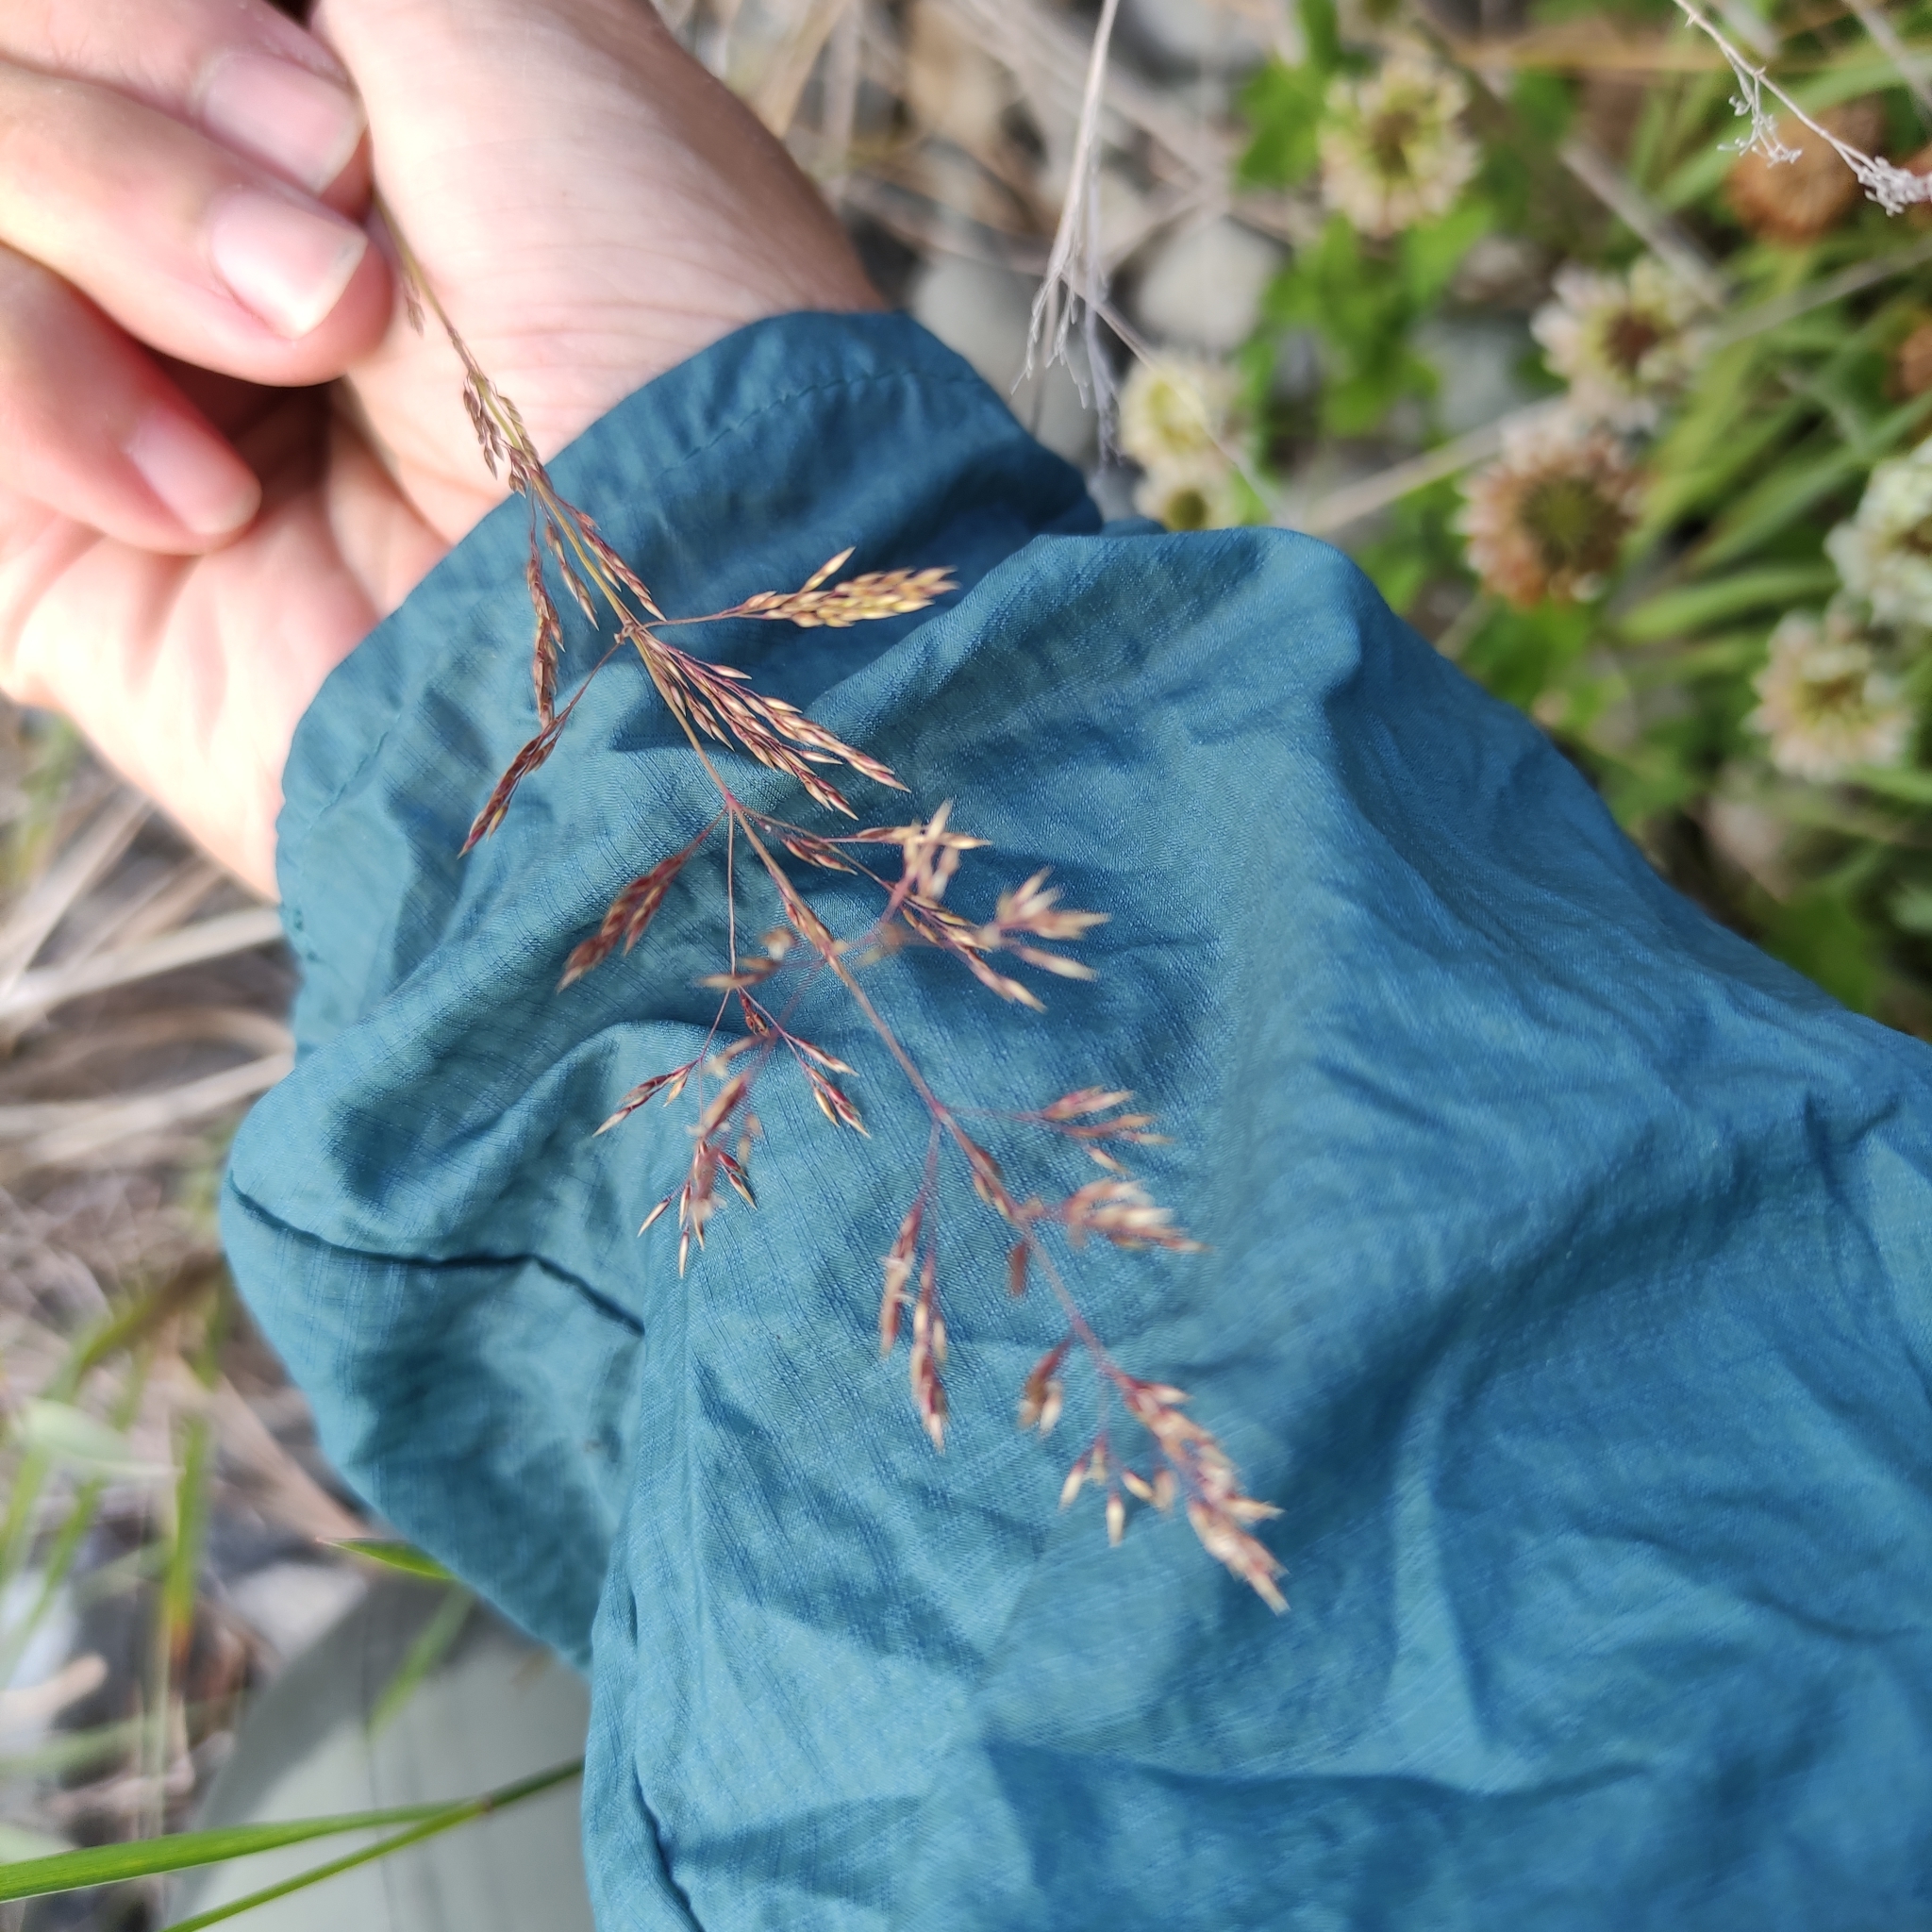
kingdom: Plantae
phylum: Tracheophyta
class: Liliopsida
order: Poales
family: Poaceae
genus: Agrostis
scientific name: Agrostis capillaris
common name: Colonial bentgrass
